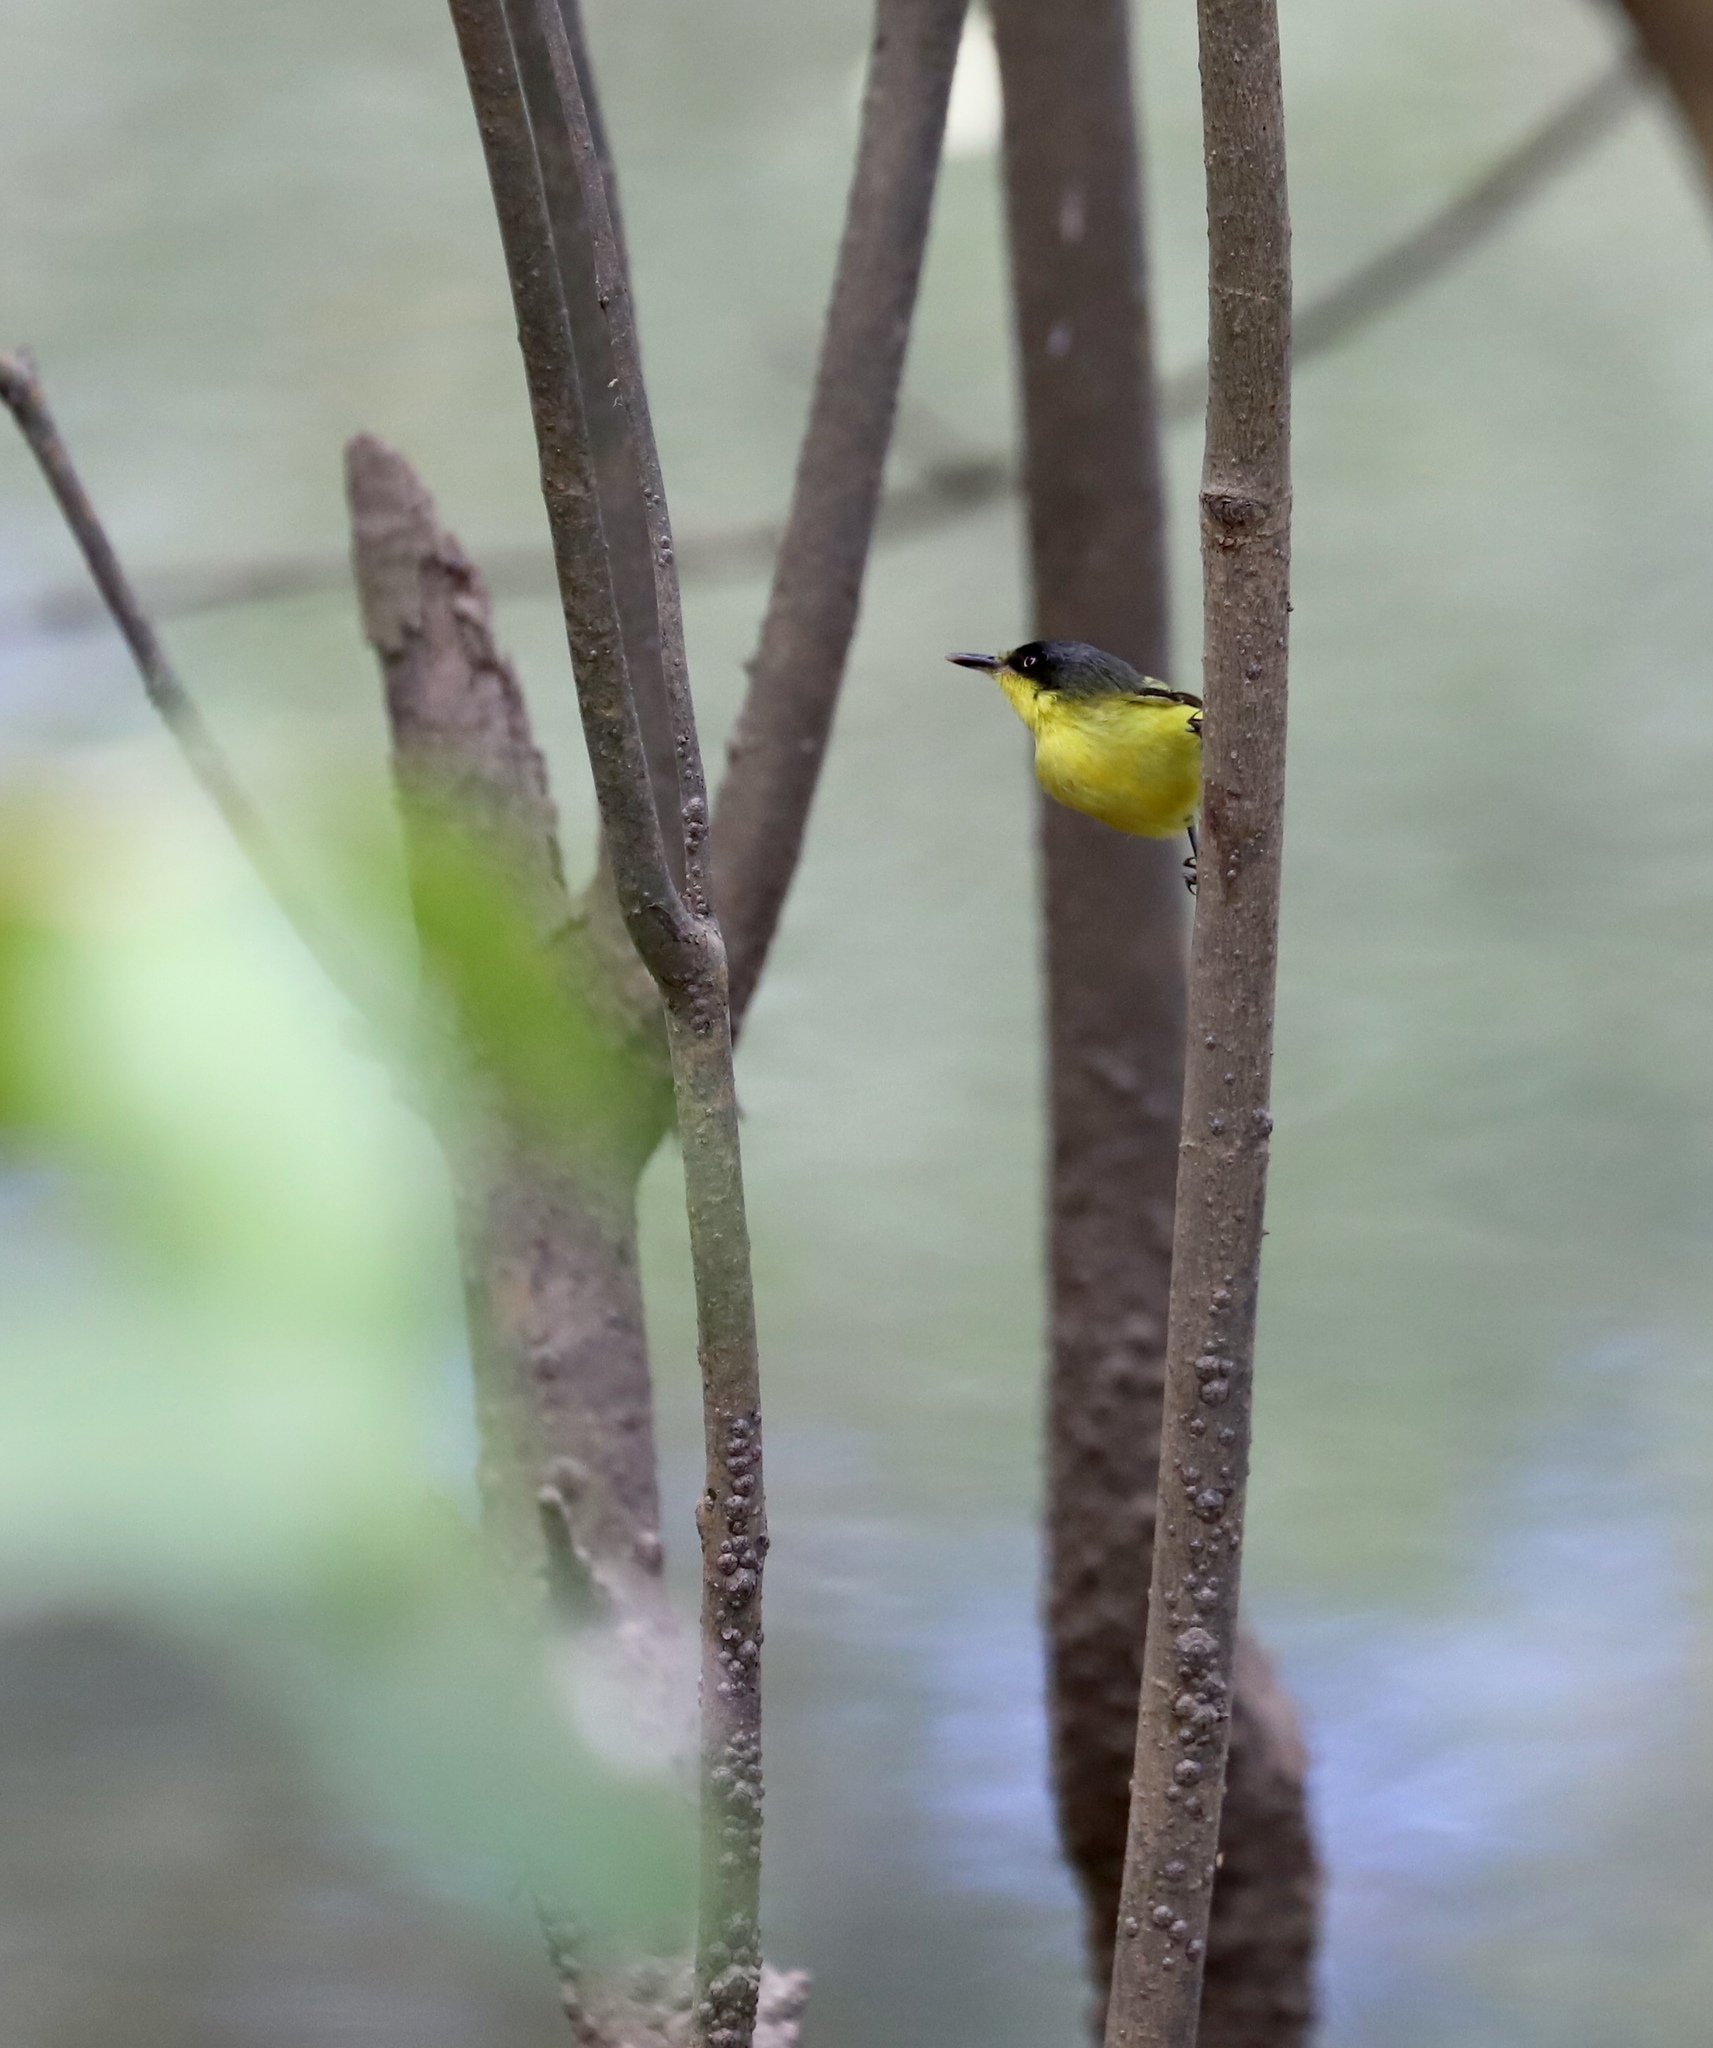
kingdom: Animalia
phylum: Chordata
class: Aves
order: Passeriformes
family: Tyrannidae
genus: Todirostrum
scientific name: Todirostrum cinereum
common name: Common tody-flycatcher
